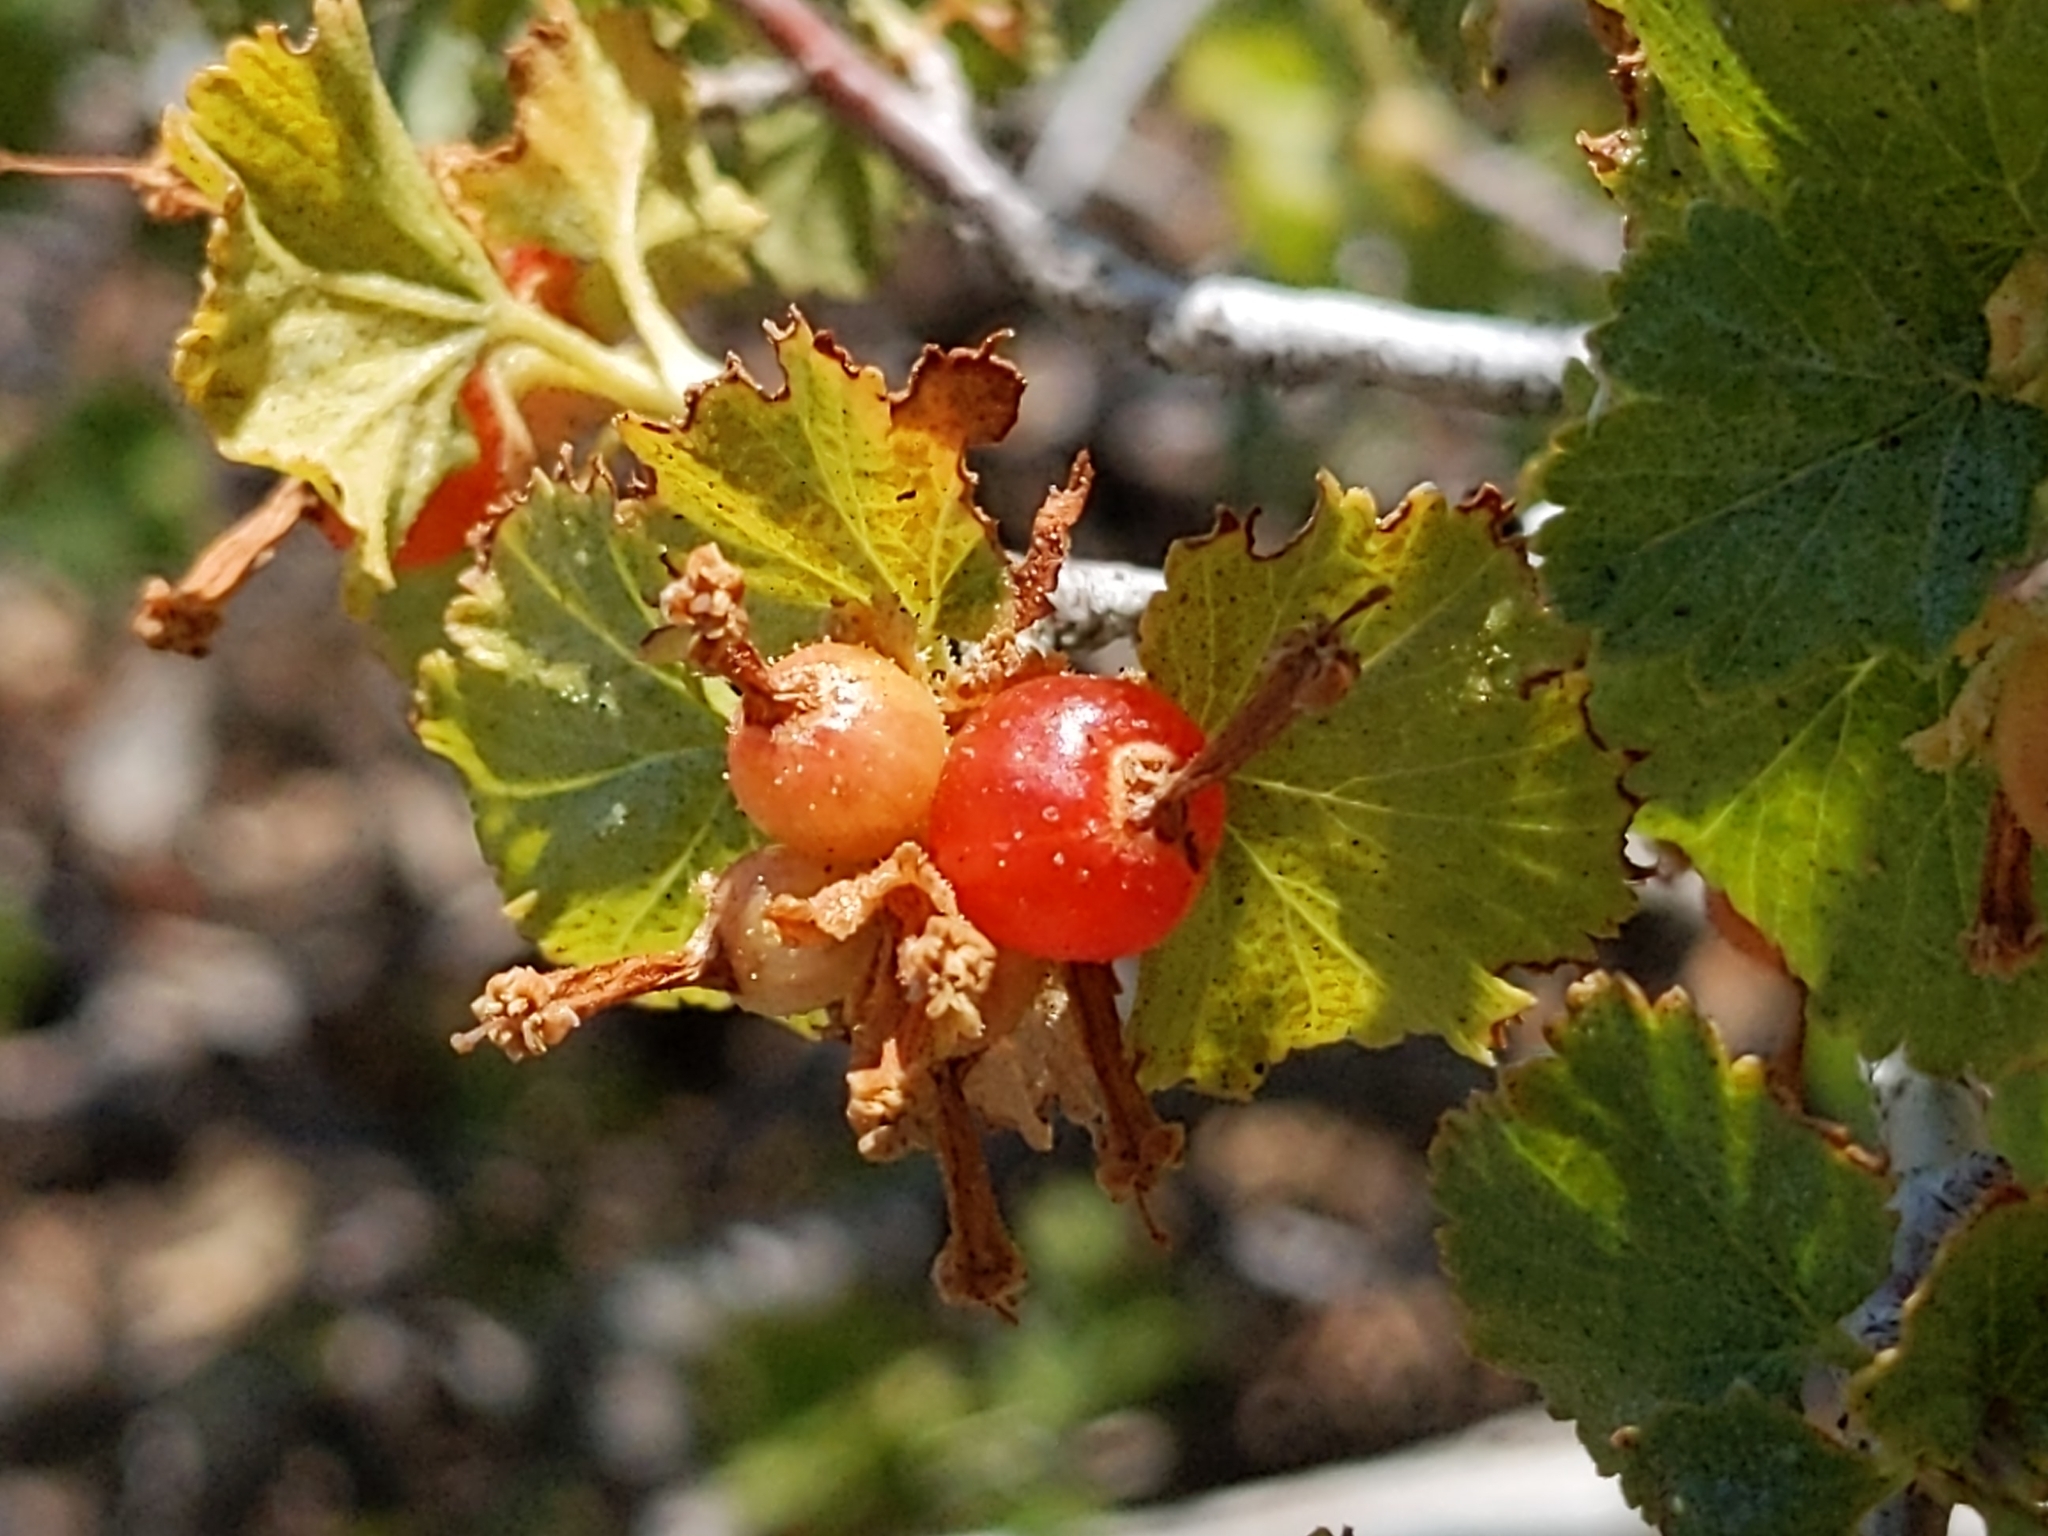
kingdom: Plantae
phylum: Tracheophyta
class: Magnoliopsida
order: Saxifragales
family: Grossulariaceae
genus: Ribes
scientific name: Ribes cereum
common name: Wax currant
